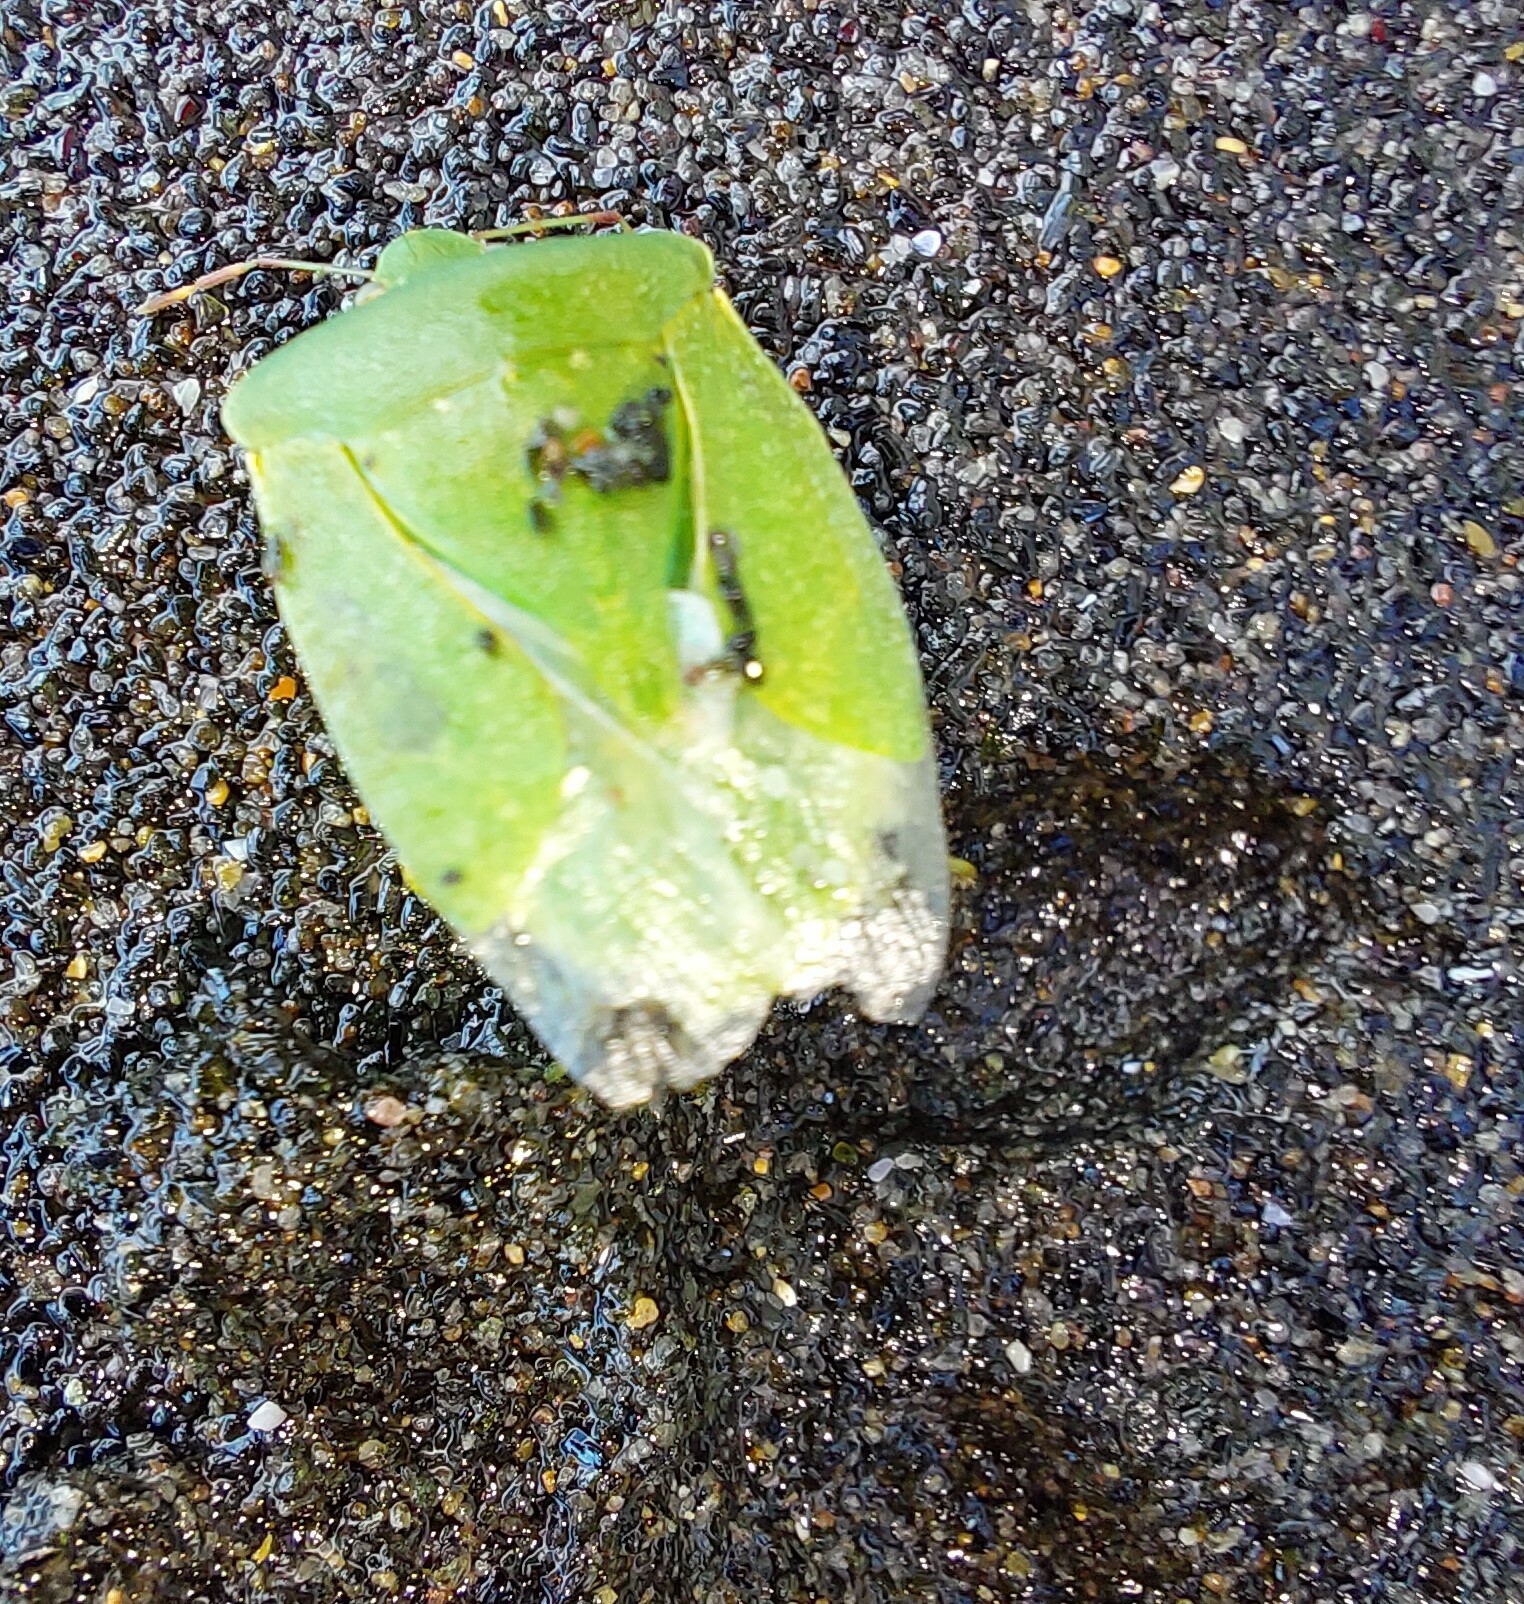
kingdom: Animalia
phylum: Arthropoda
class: Insecta
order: Hemiptera
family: Pentatomidae
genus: Nezara
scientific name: Nezara viridula
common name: Southern green stink bug
